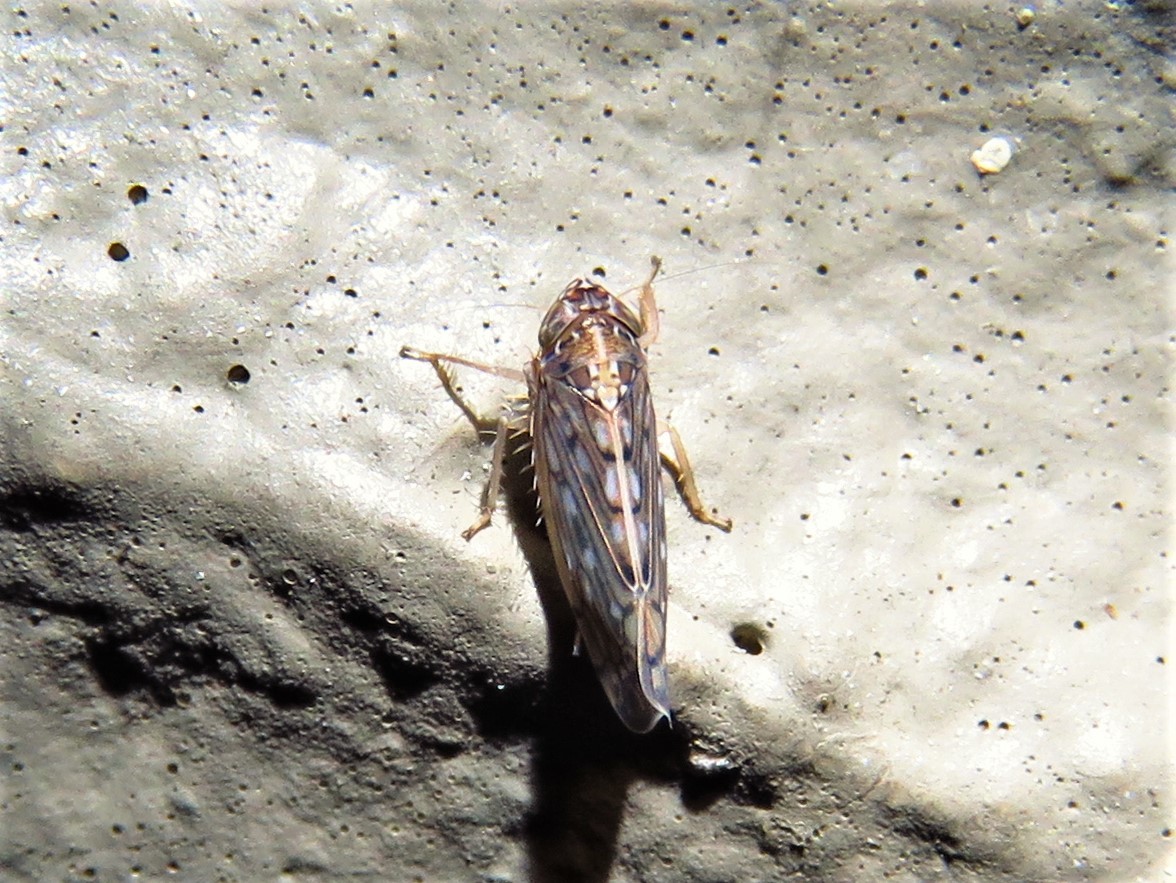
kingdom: Animalia
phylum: Arthropoda
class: Insecta
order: Hemiptera
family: Cicadellidae
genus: Osbornellus
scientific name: Osbornellus clarus
